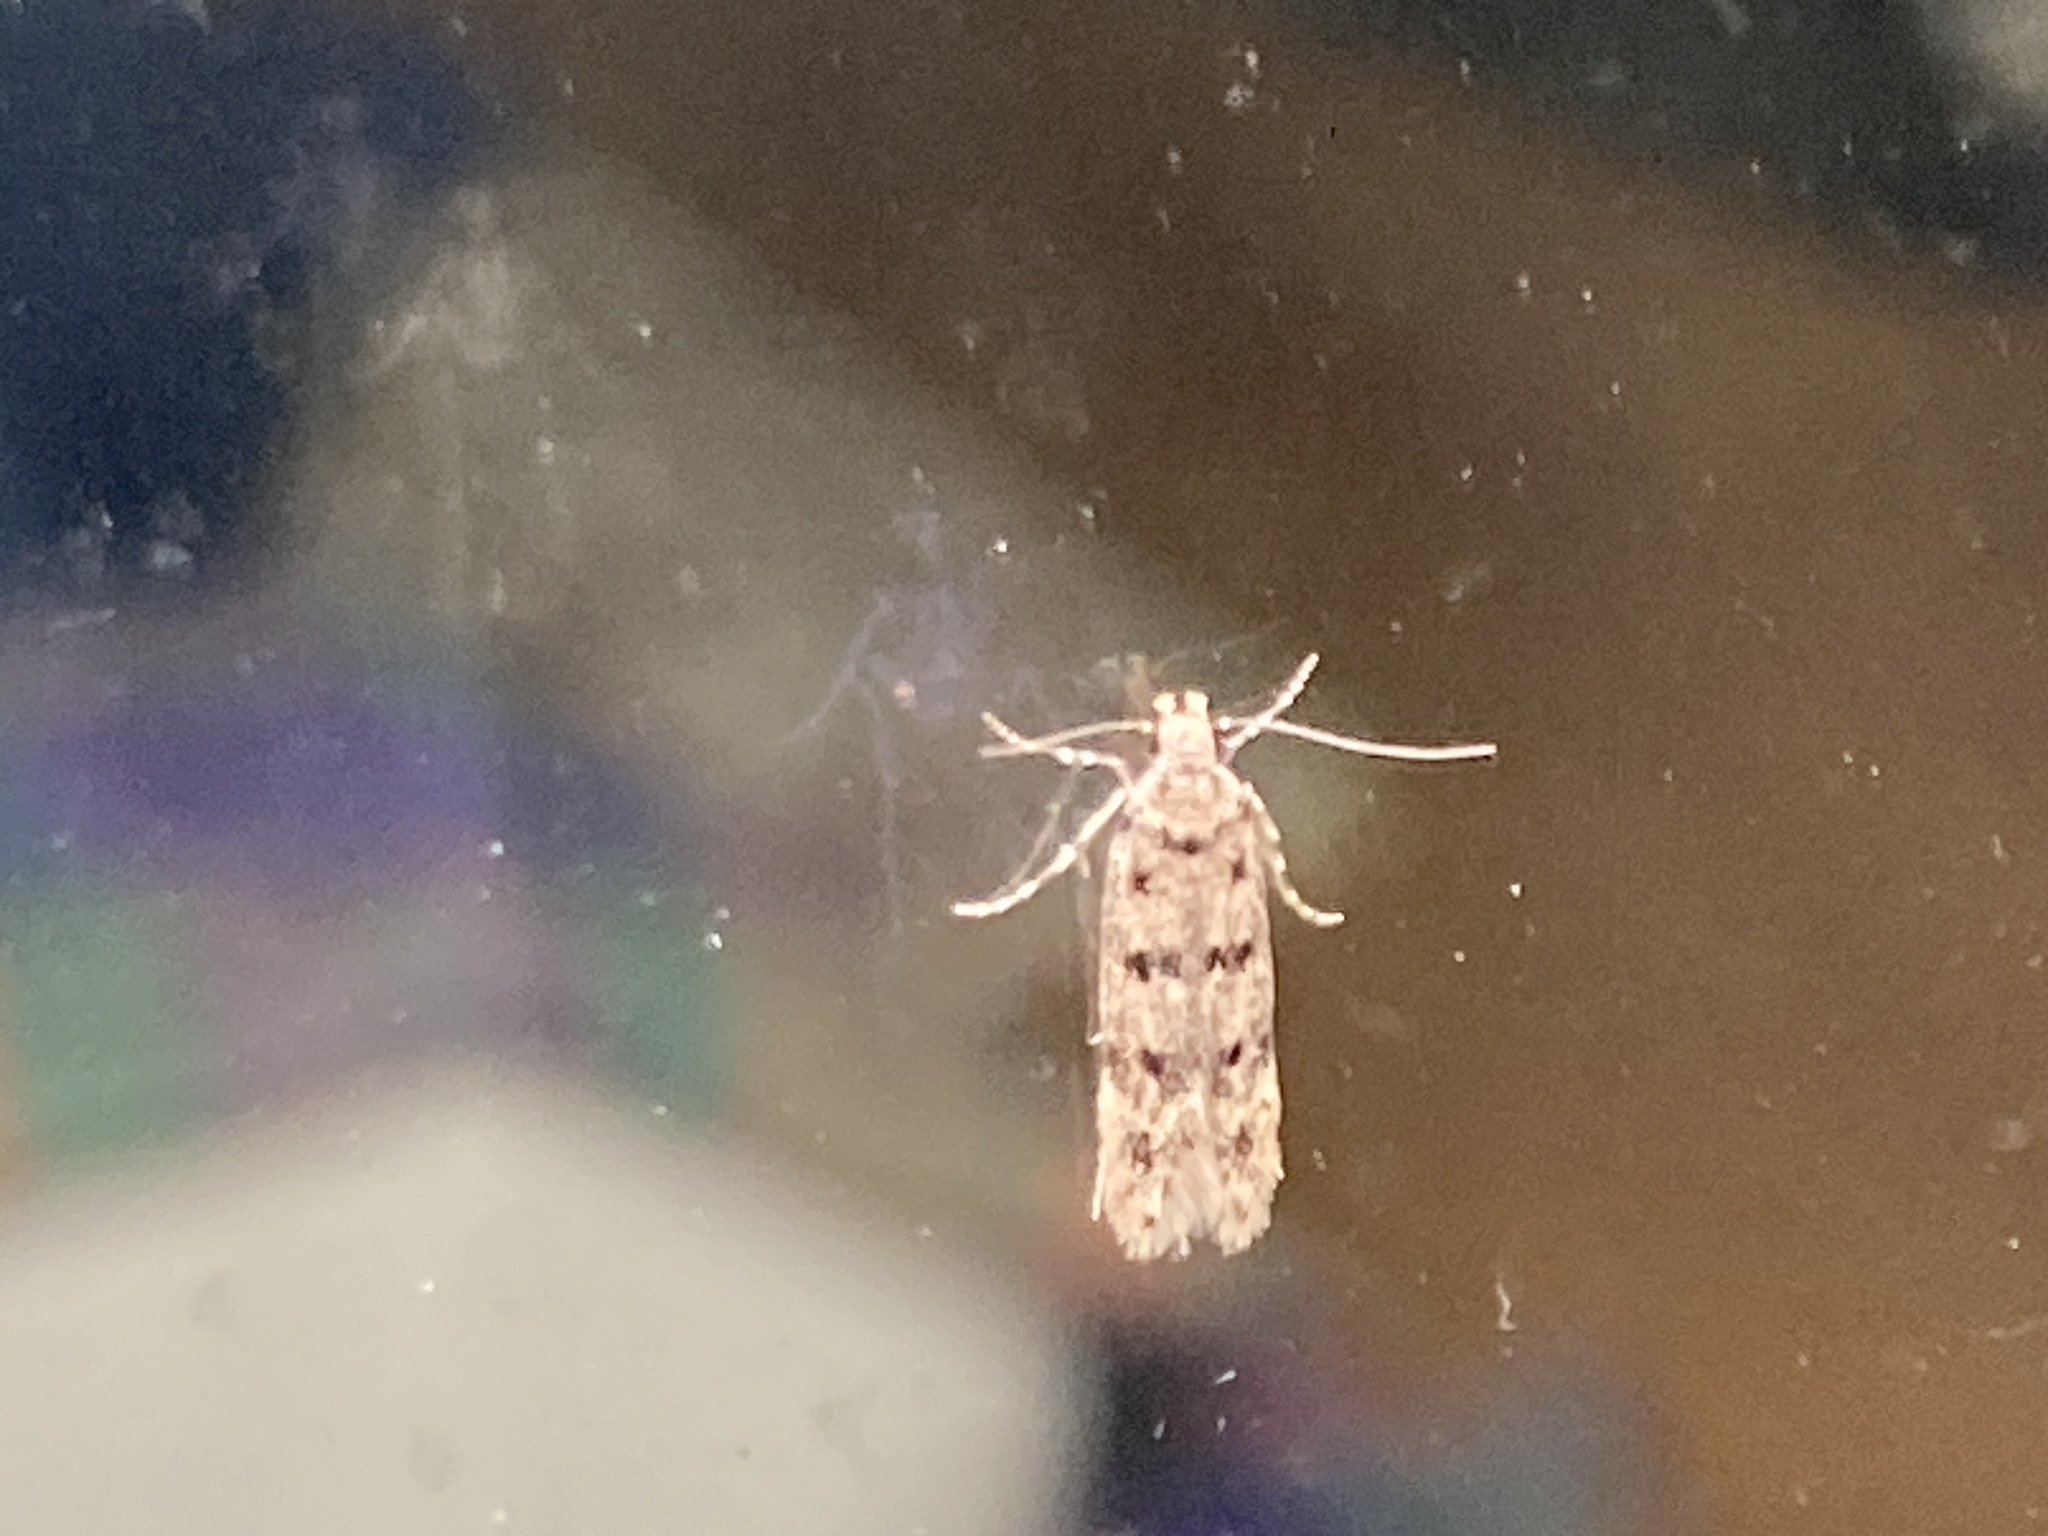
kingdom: Animalia
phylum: Arthropoda
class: Insecta
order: Lepidoptera
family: Gelechiidae
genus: Bryotropha
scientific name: Bryotropha domestica
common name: House groundling
